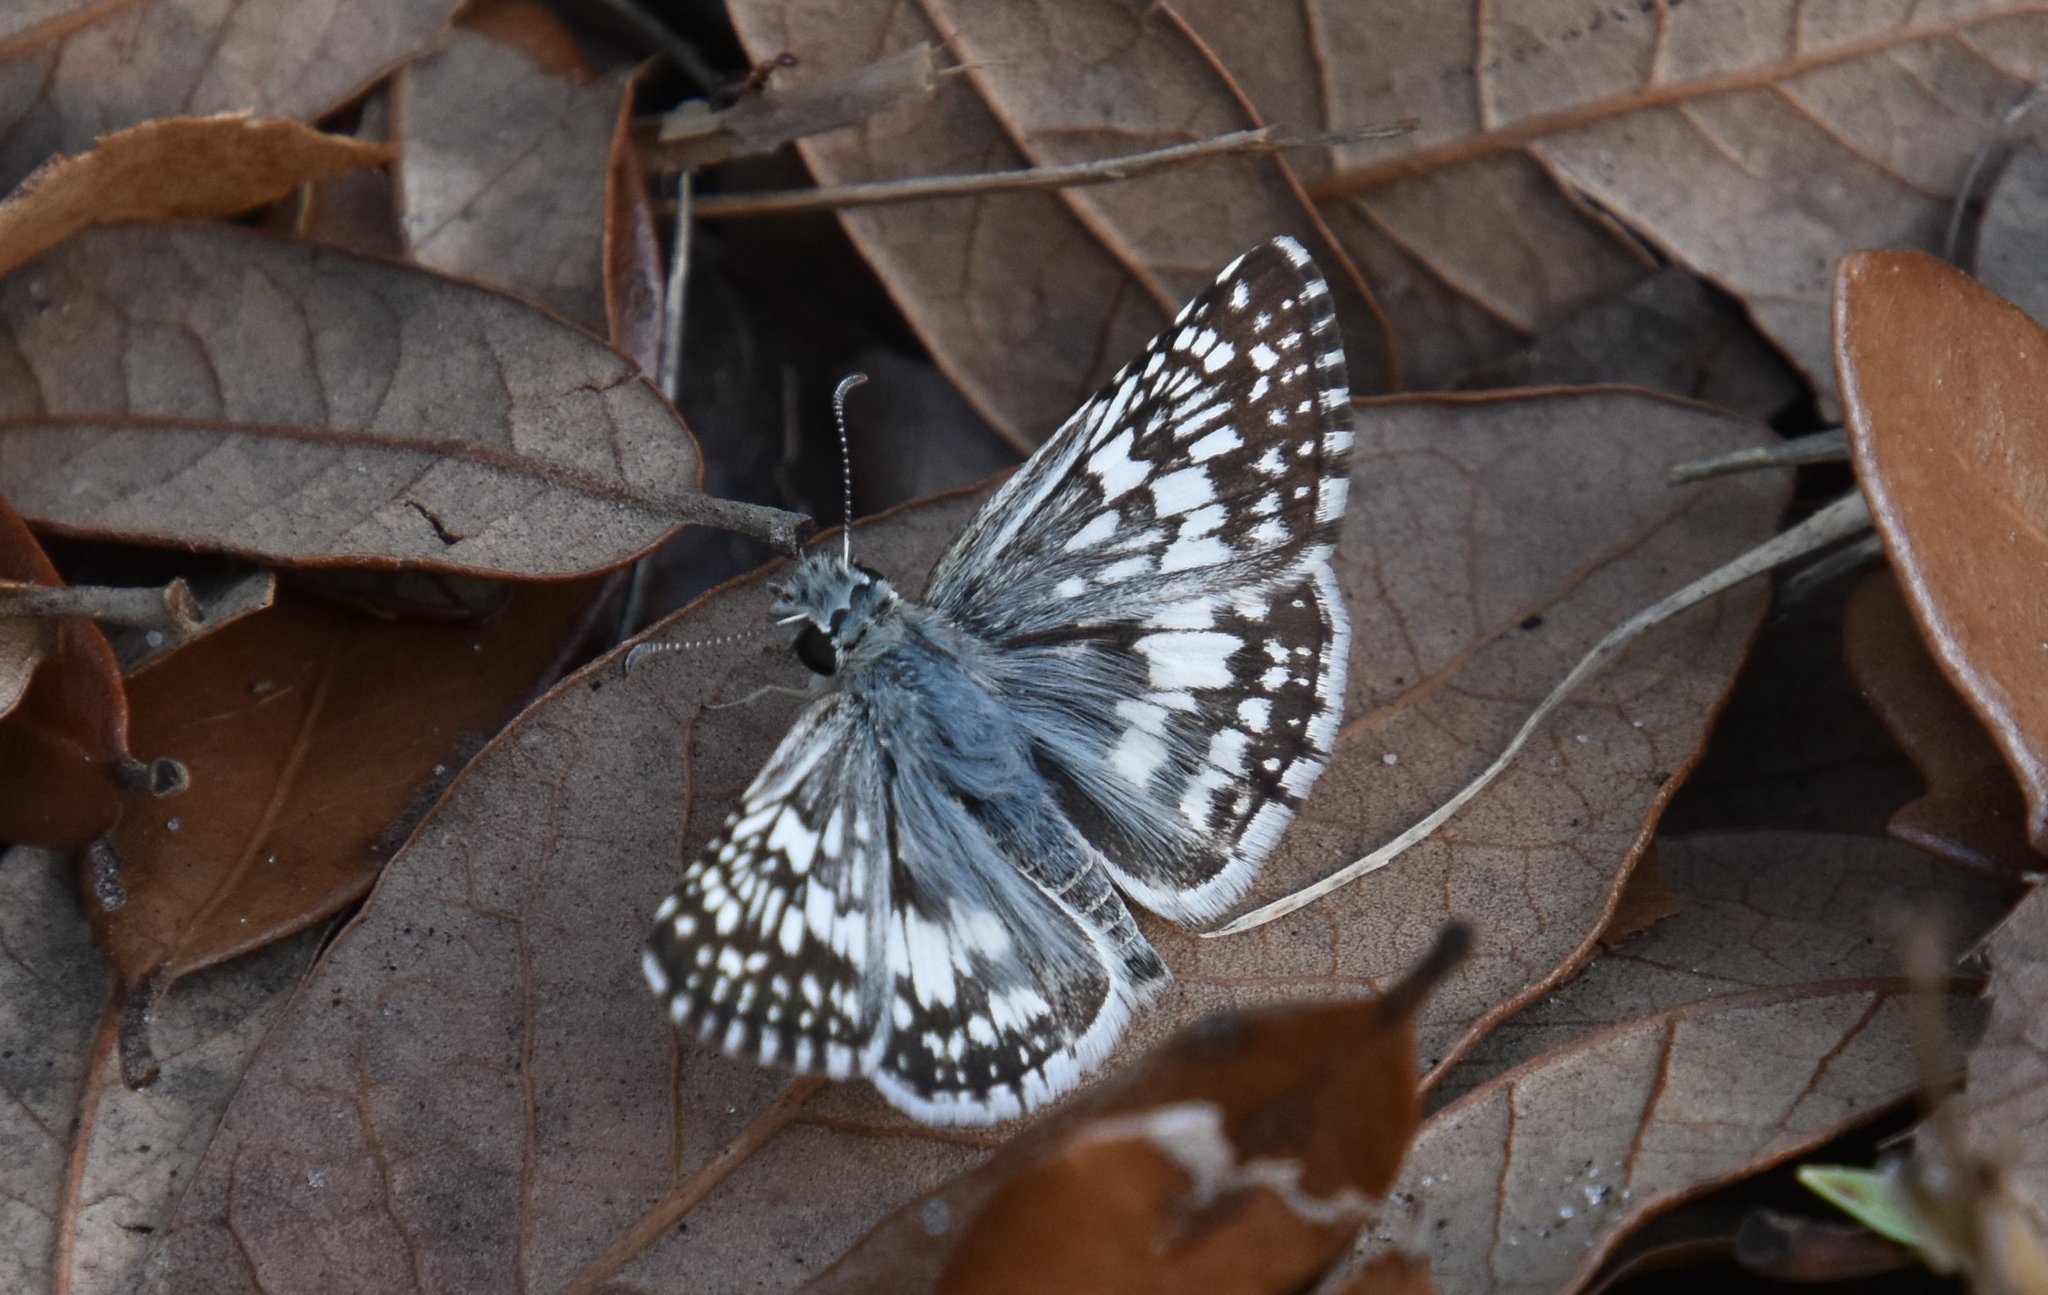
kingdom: Animalia
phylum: Arthropoda
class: Insecta
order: Lepidoptera
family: Hesperiidae
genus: Burnsius
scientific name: Burnsius albezens
